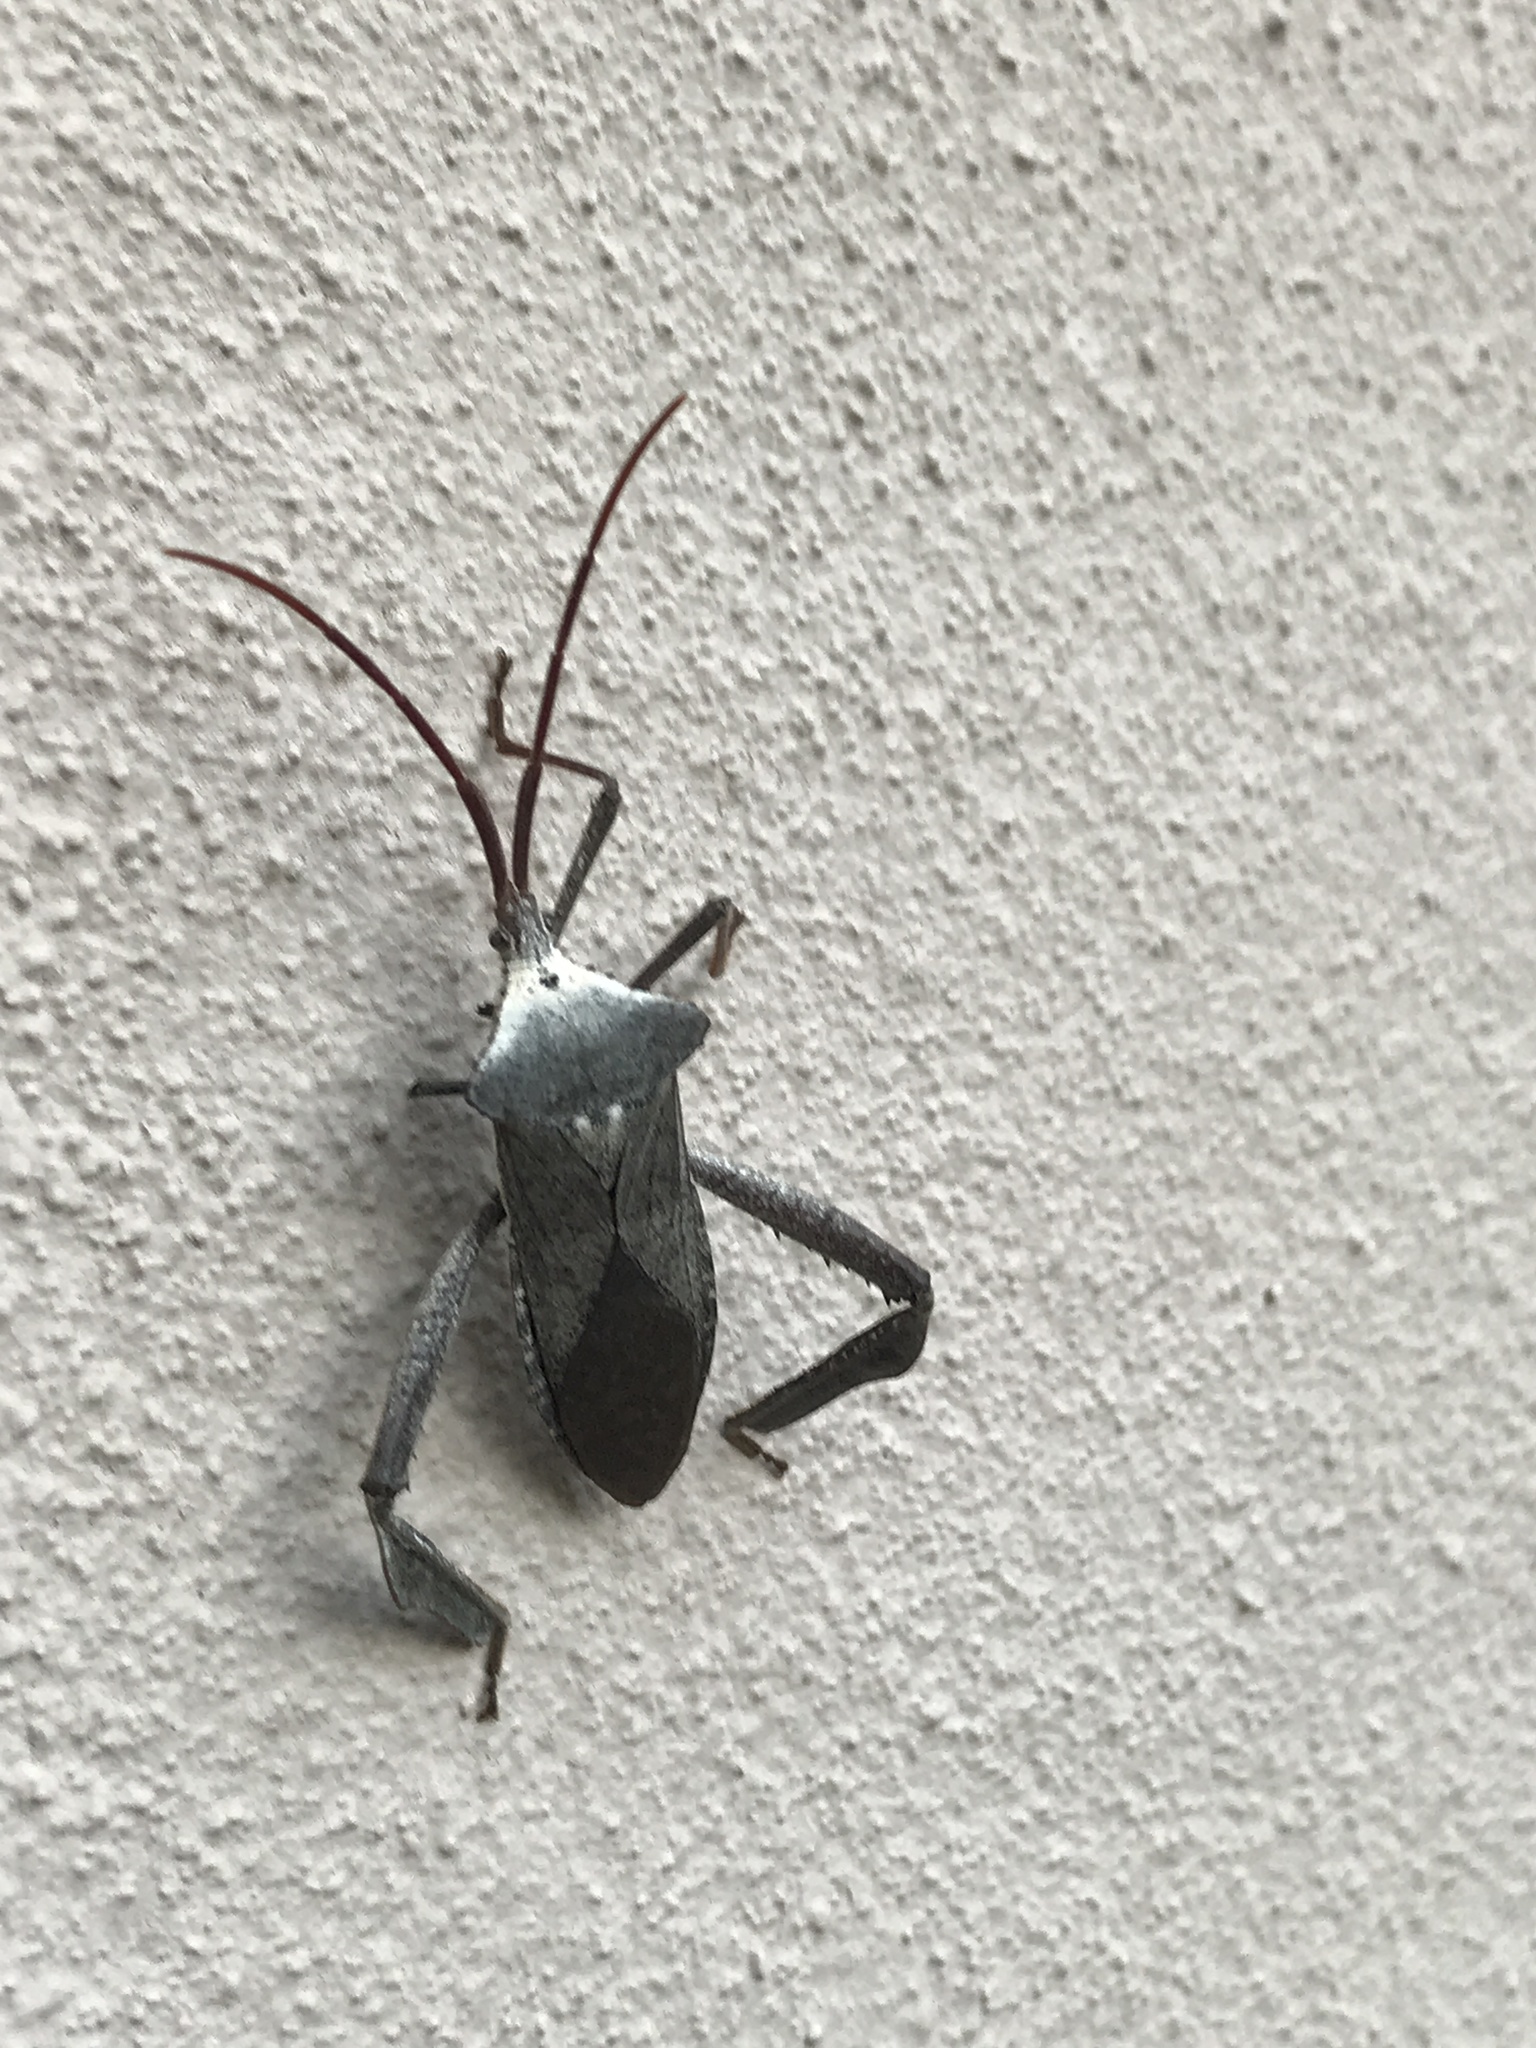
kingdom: Animalia
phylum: Arthropoda
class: Insecta
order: Hemiptera
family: Coreidae
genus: Acanthocephala
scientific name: Acanthocephala declivis
